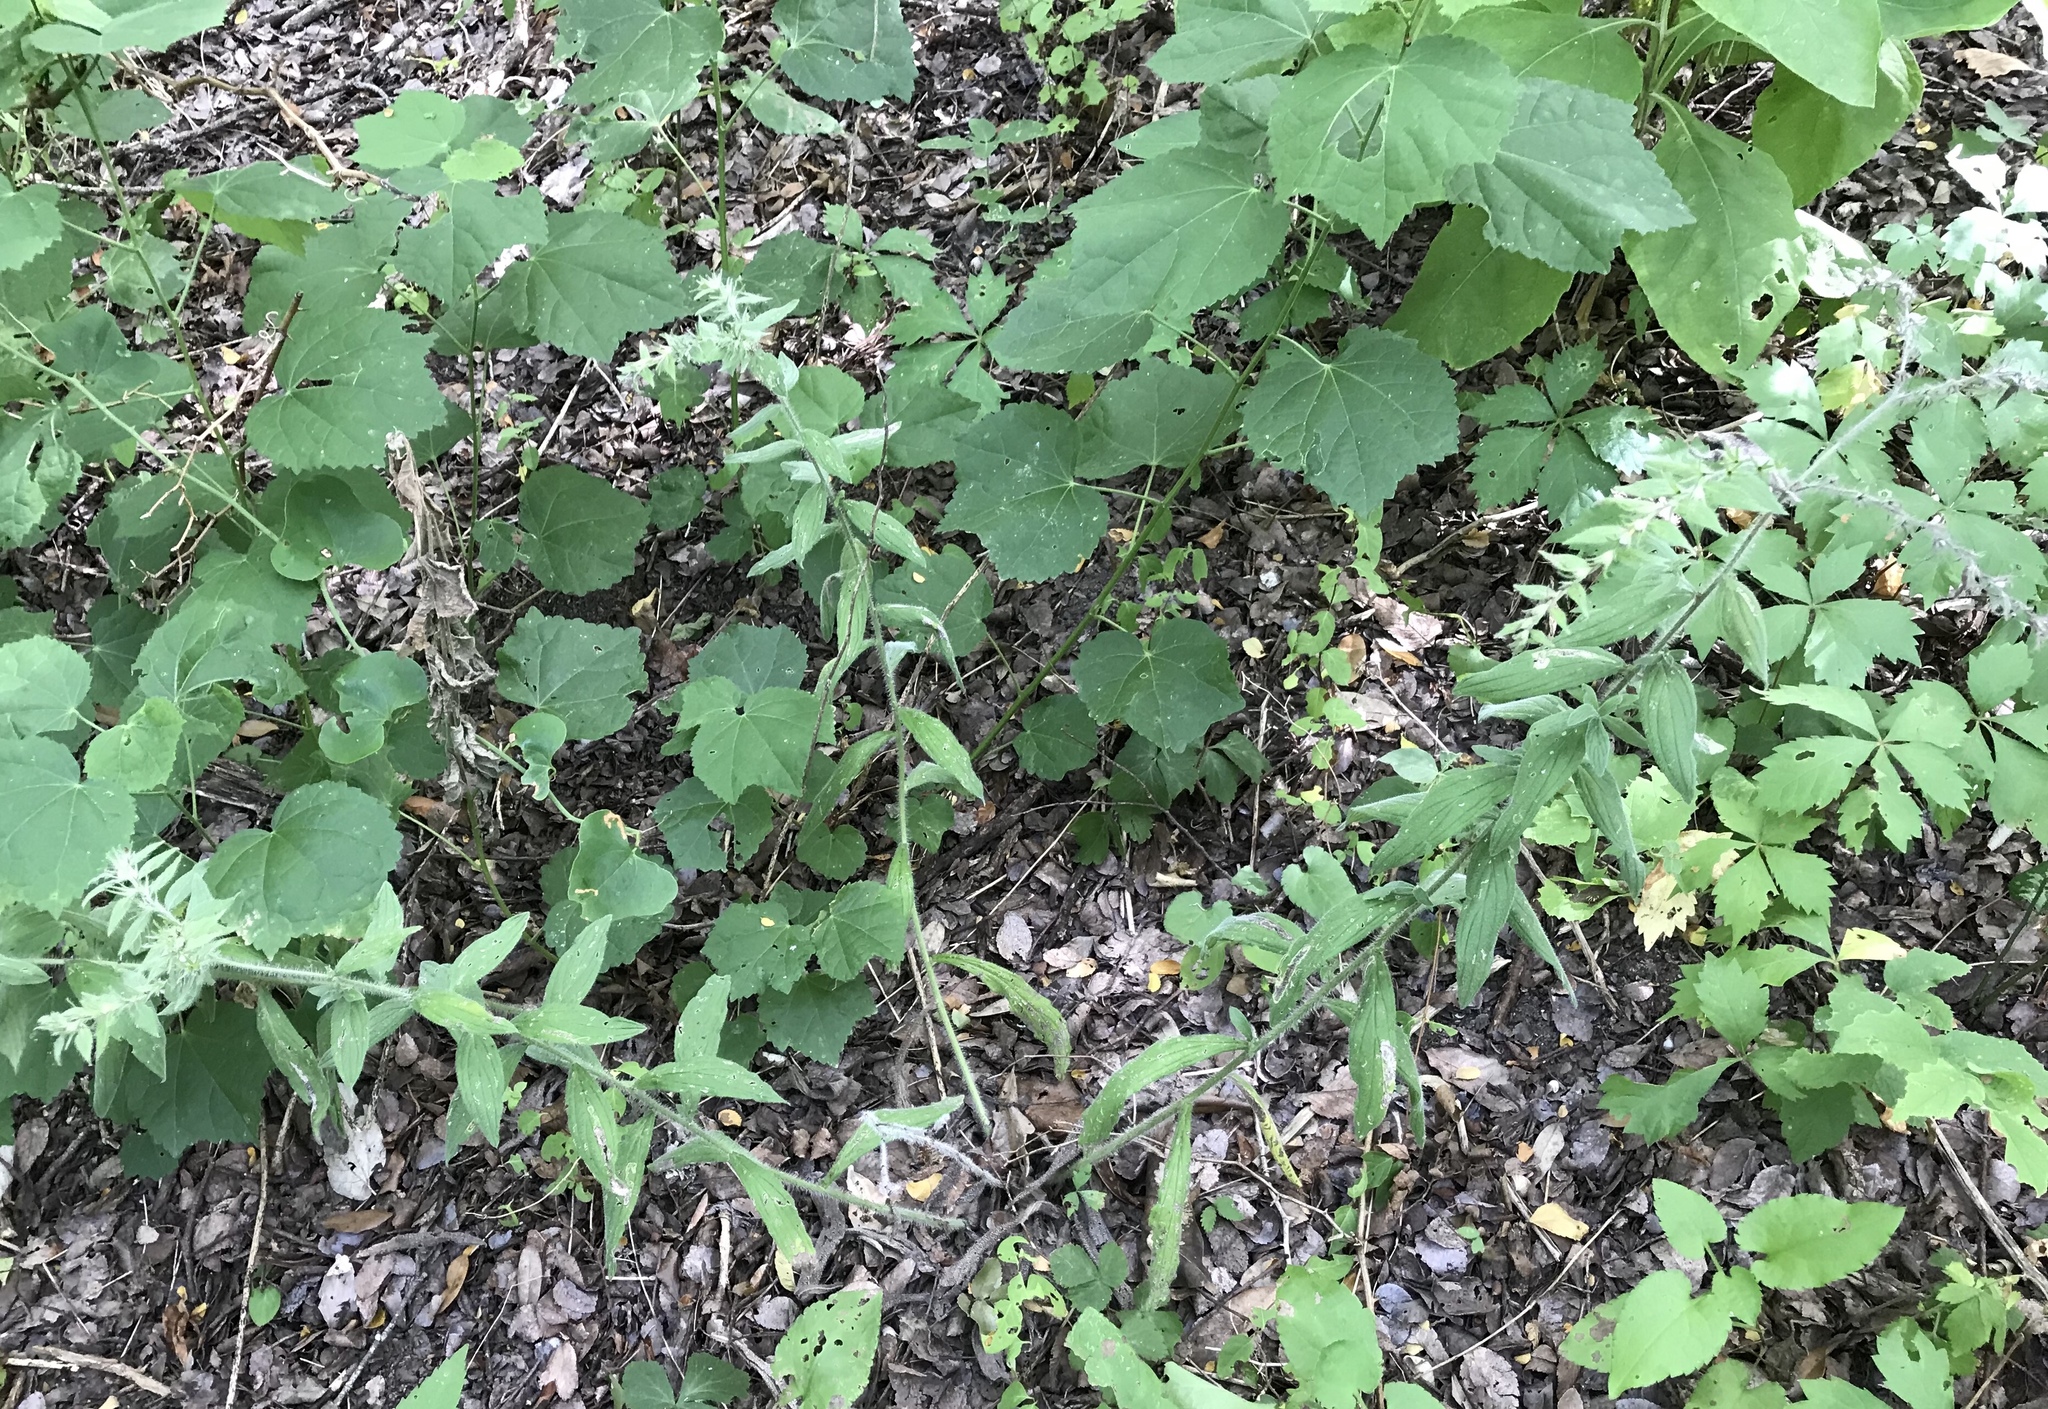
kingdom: Plantae
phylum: Tracheophyta
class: Magnoliopsida
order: Boraginales
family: Boraginaceae
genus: Lithospermum
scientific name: Lithospermum caroliniense
